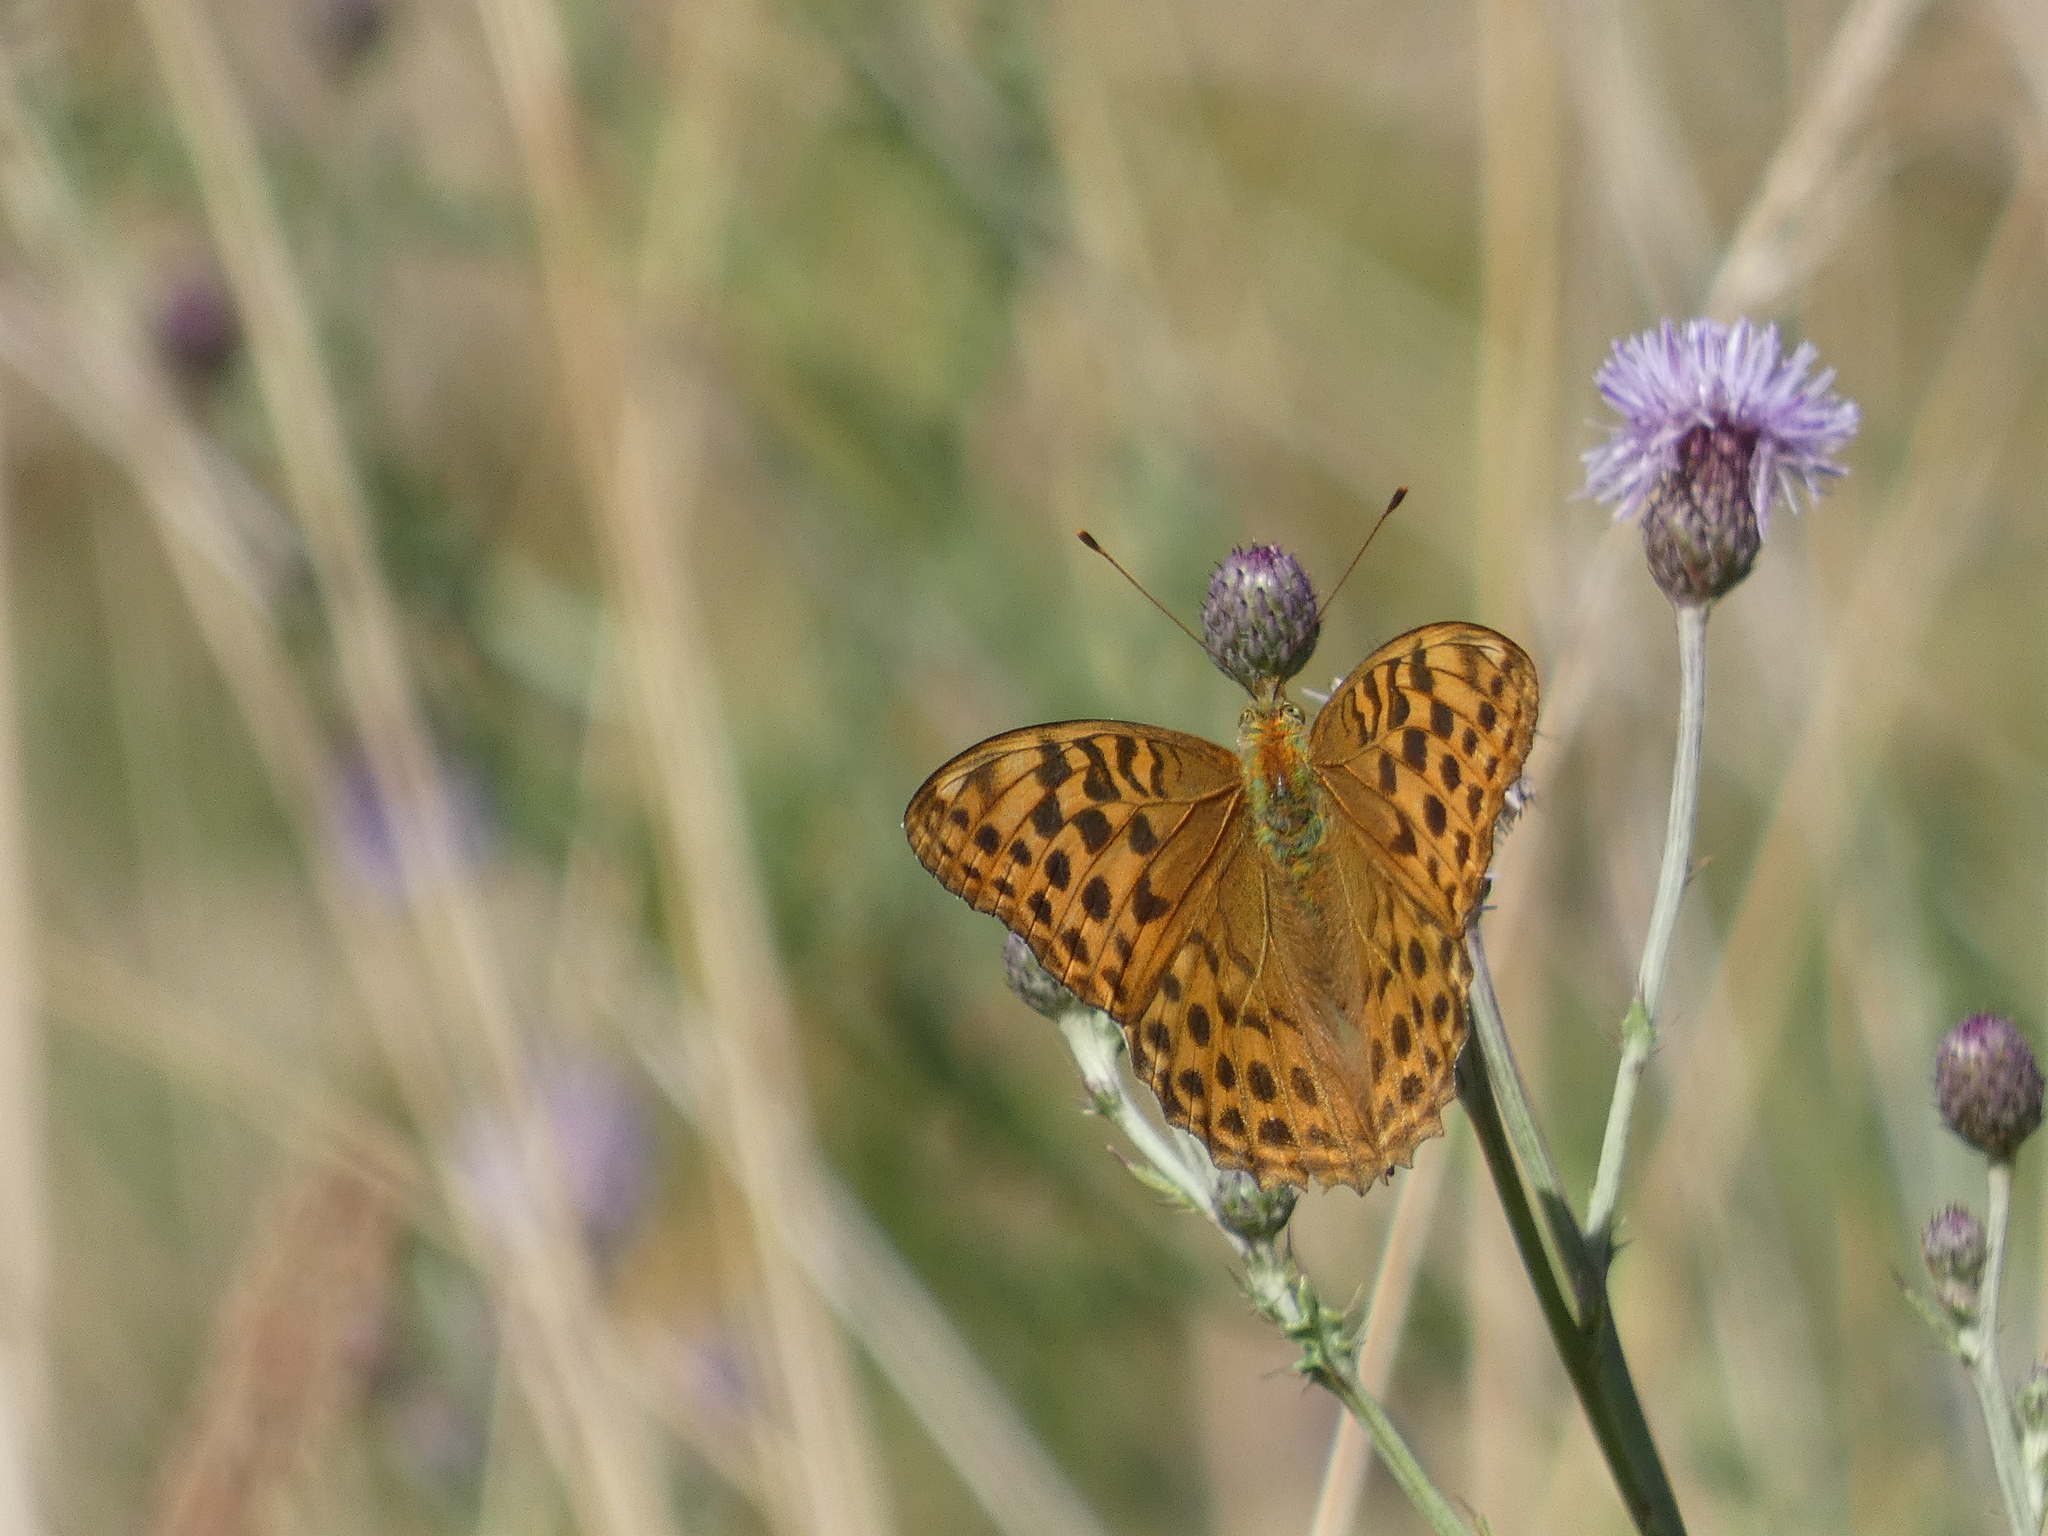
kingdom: Animalia
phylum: Arthropoda
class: Insecta
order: Lepidoptera
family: Nymphalidae
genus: Argynnis
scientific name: Argynnis paphia
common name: Silver-washed fritillary
